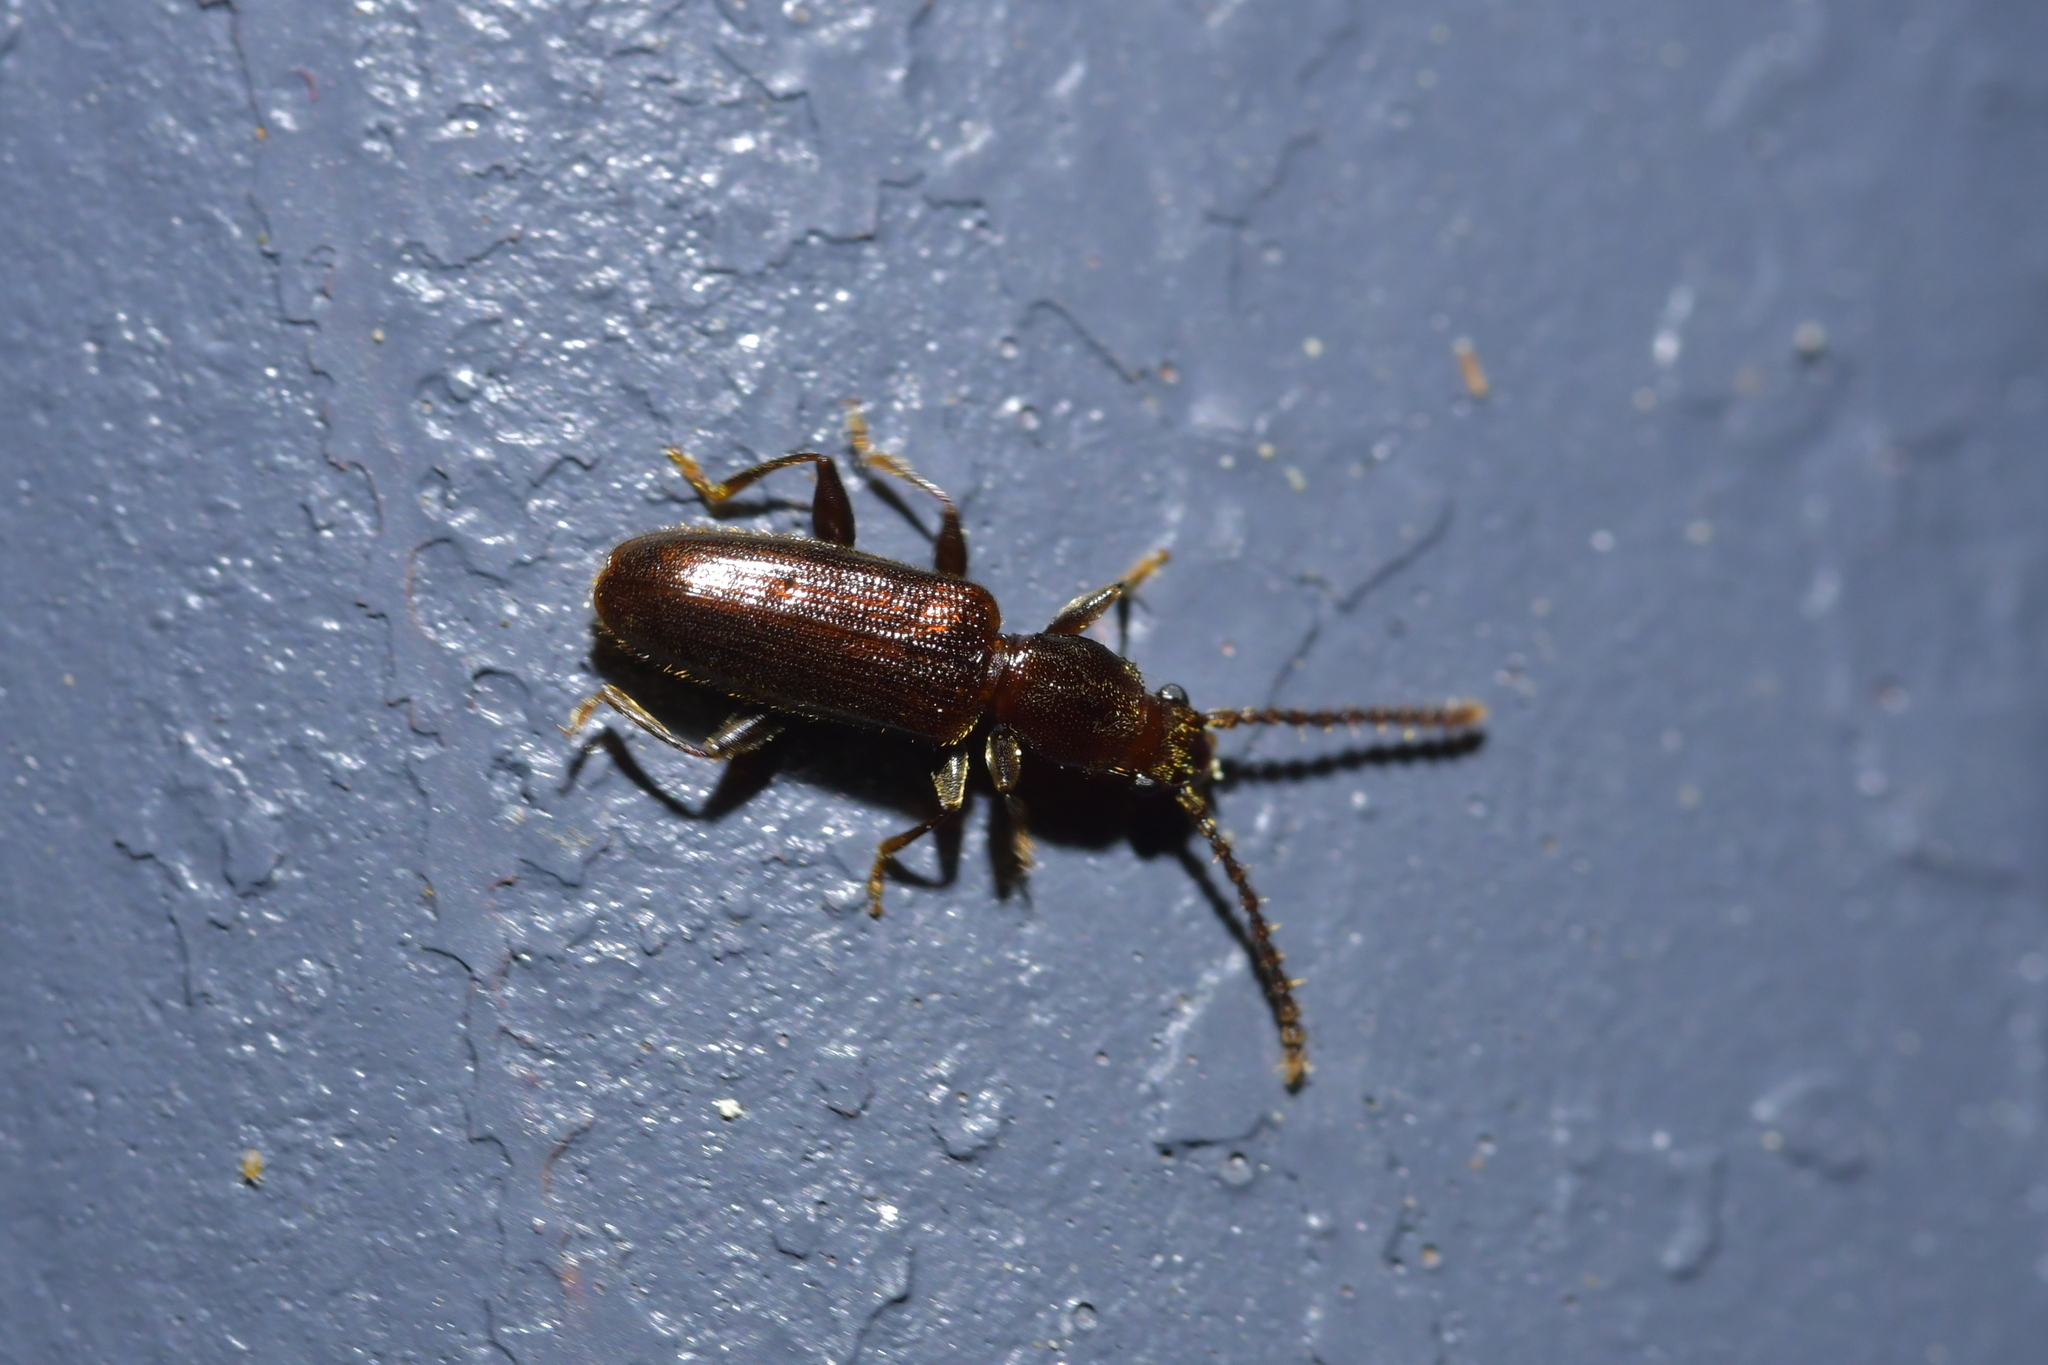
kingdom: Animalia
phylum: Arthropoda
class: Insecta
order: Coleoptera
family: Silvanidae
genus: Cryptamorpha
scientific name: Cryptamorpha brevicornis
